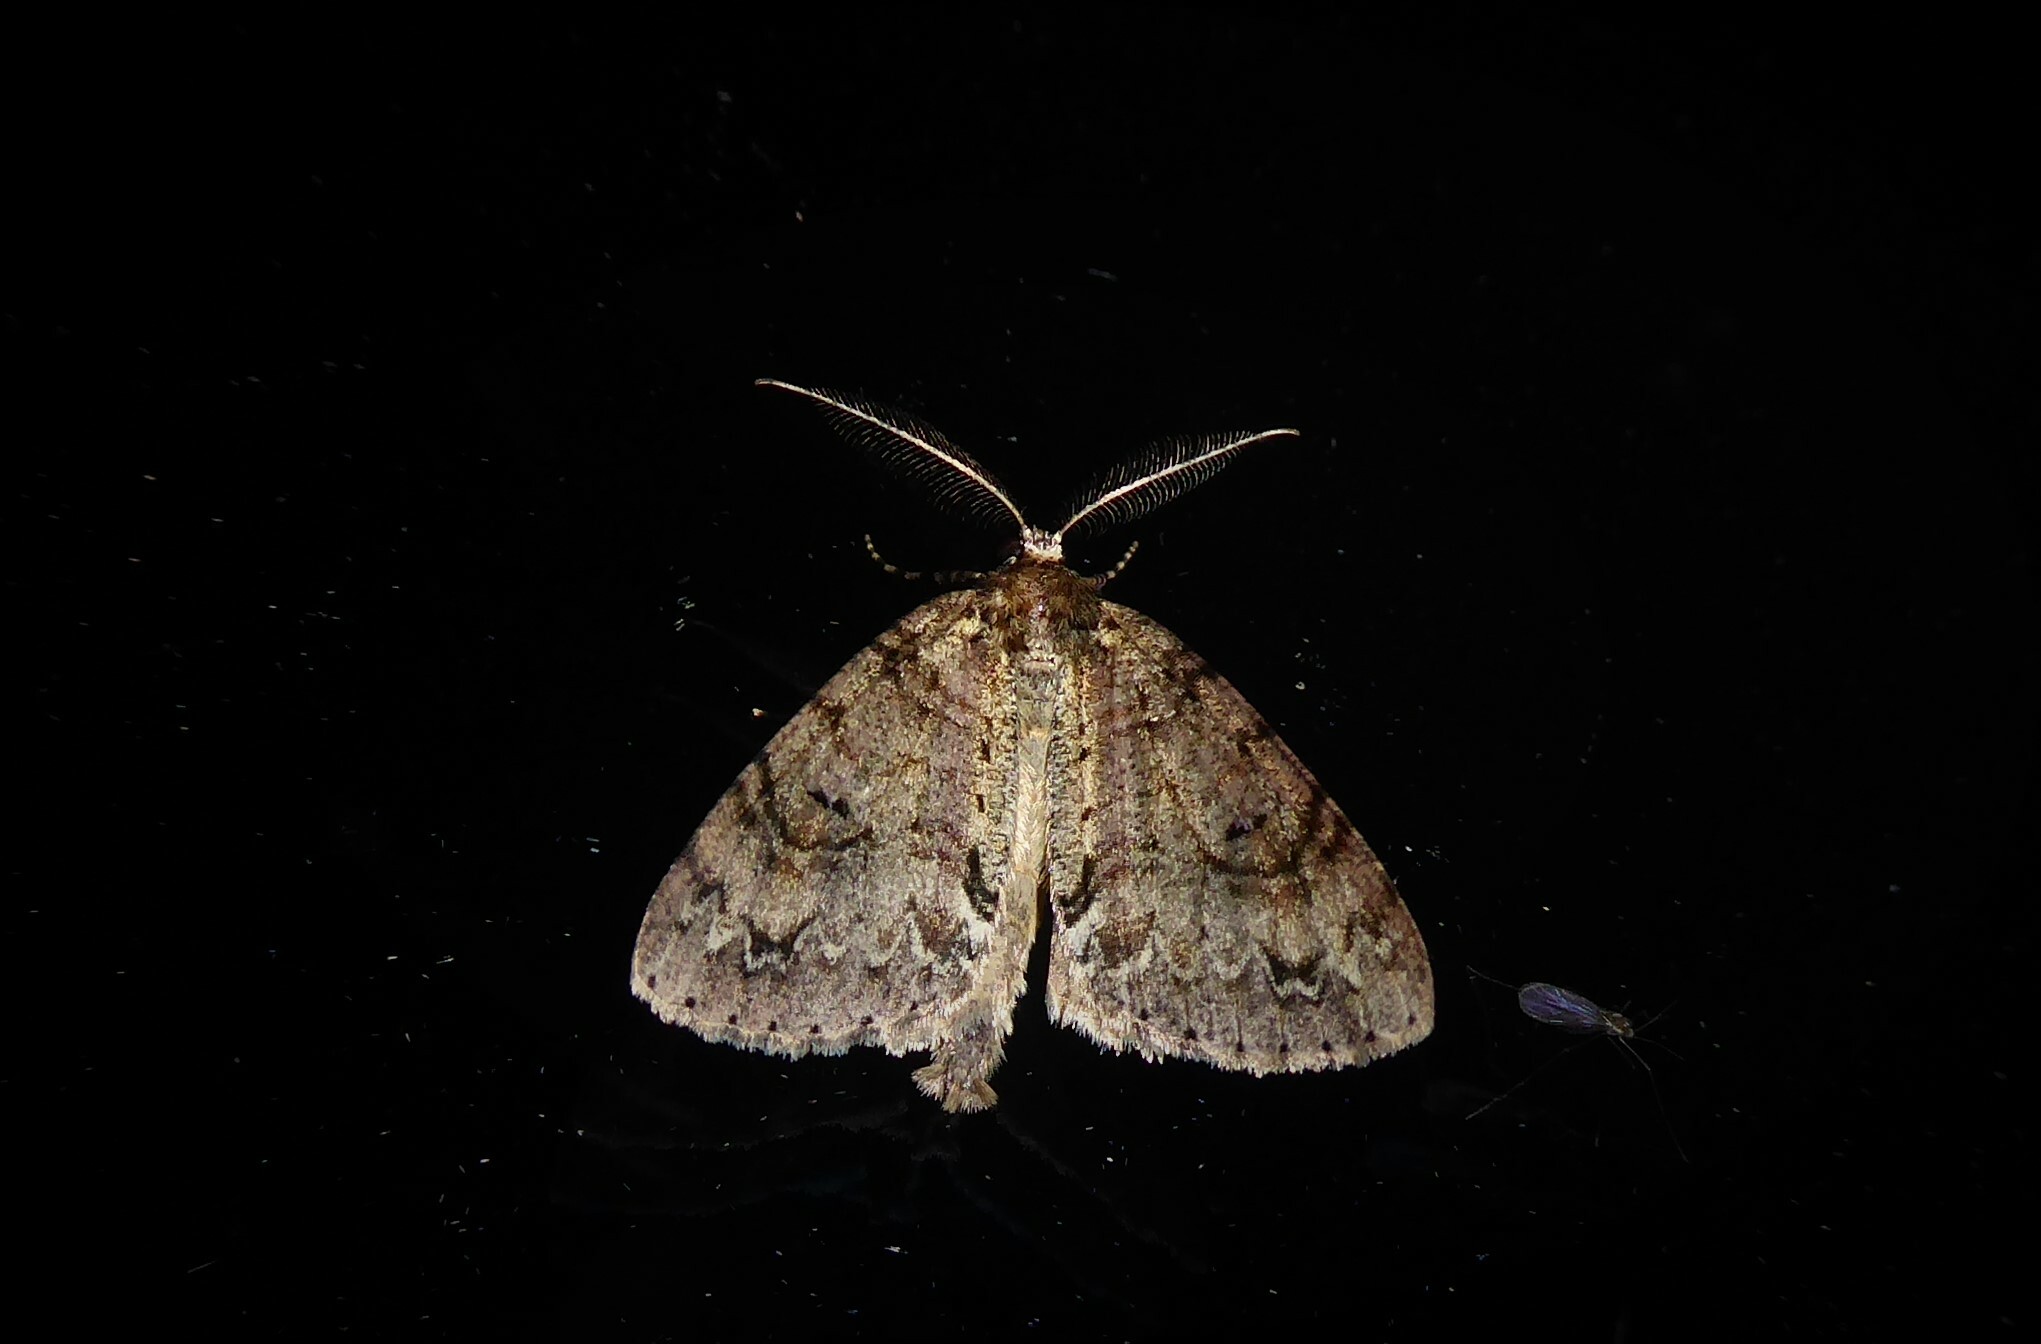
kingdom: Animalia
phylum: Arthropoda
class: Insecta
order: Lepidoptera
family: Geometridae
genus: Pseudocoremia
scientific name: Pseudocoremia suavis
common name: Common forest looper
